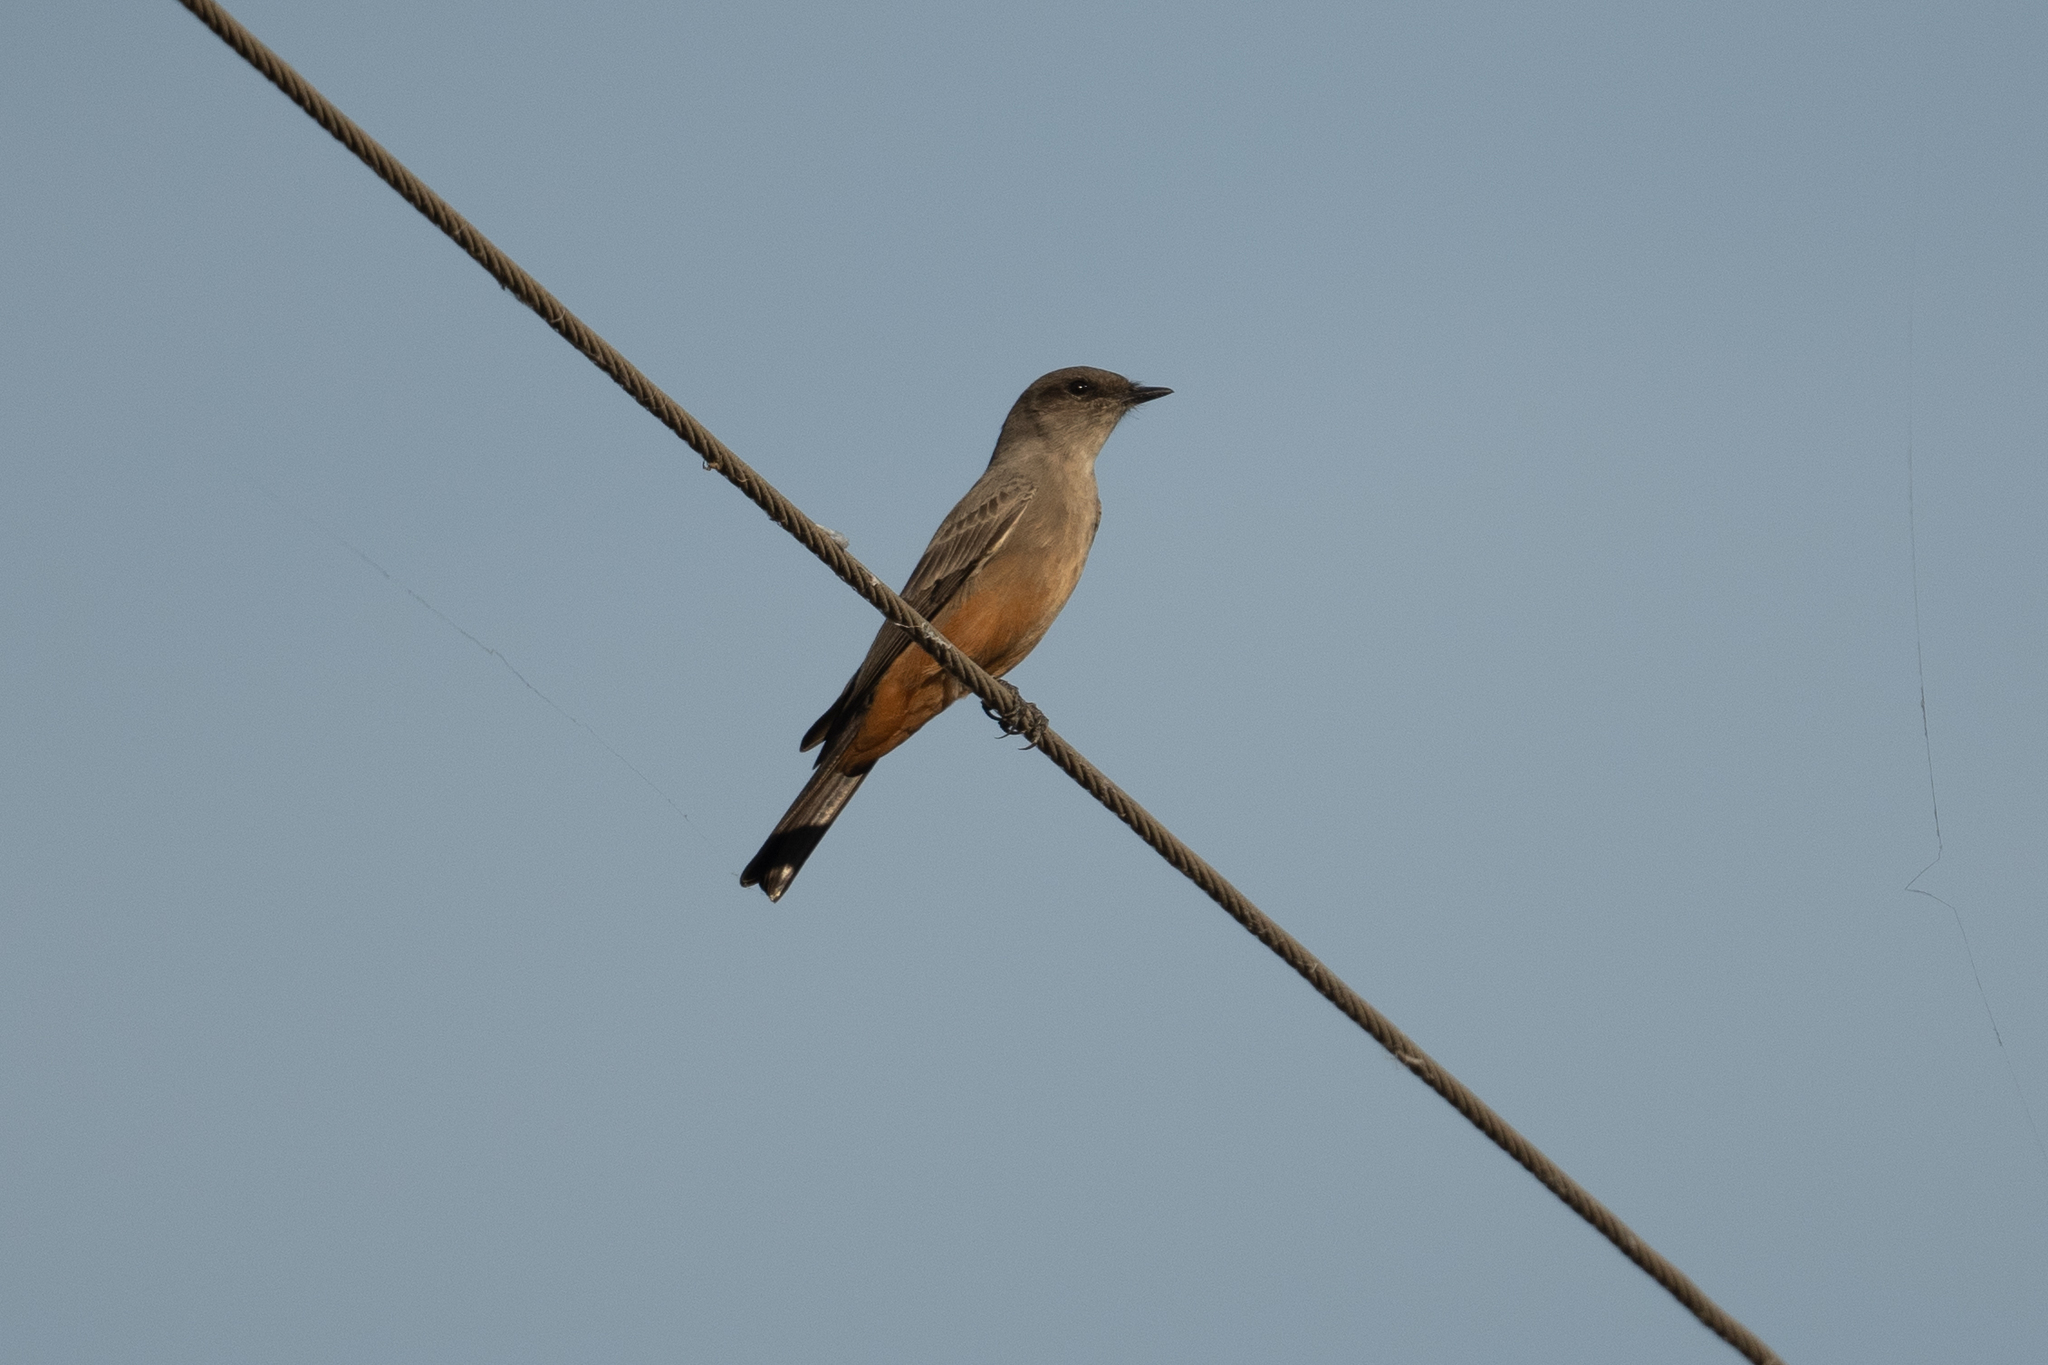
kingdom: Animalia
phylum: Chordata
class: Aves
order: Passeriformes
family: Tyrannidae
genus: Sayornis
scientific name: Sayornis saya
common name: Say's phoebe
